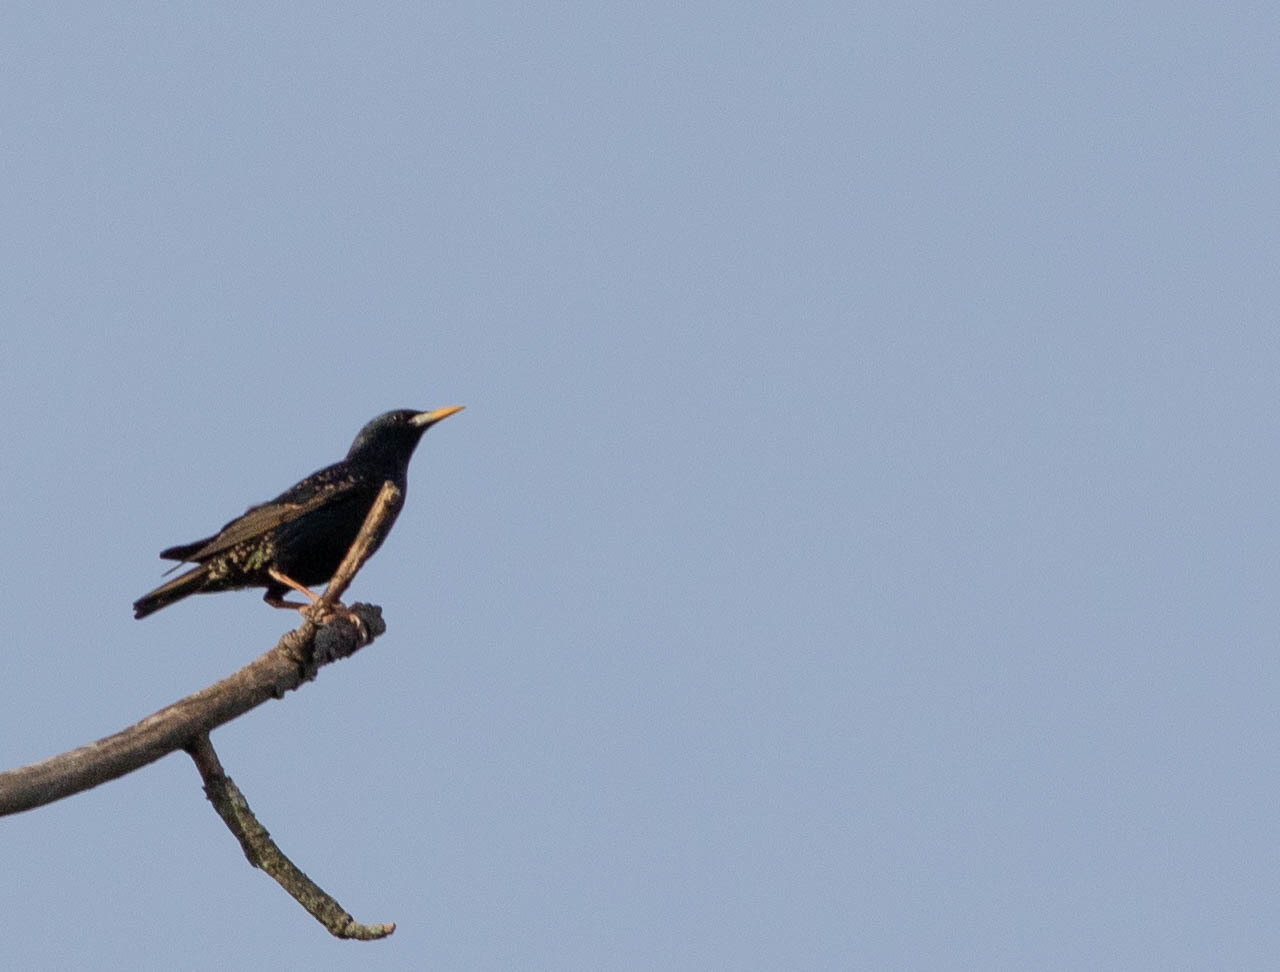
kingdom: Animalia
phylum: Chordata
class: Aves
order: Passeriformes
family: Sturnidae
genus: Sturnus
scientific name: Sturnus vulgaris
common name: Common starling
